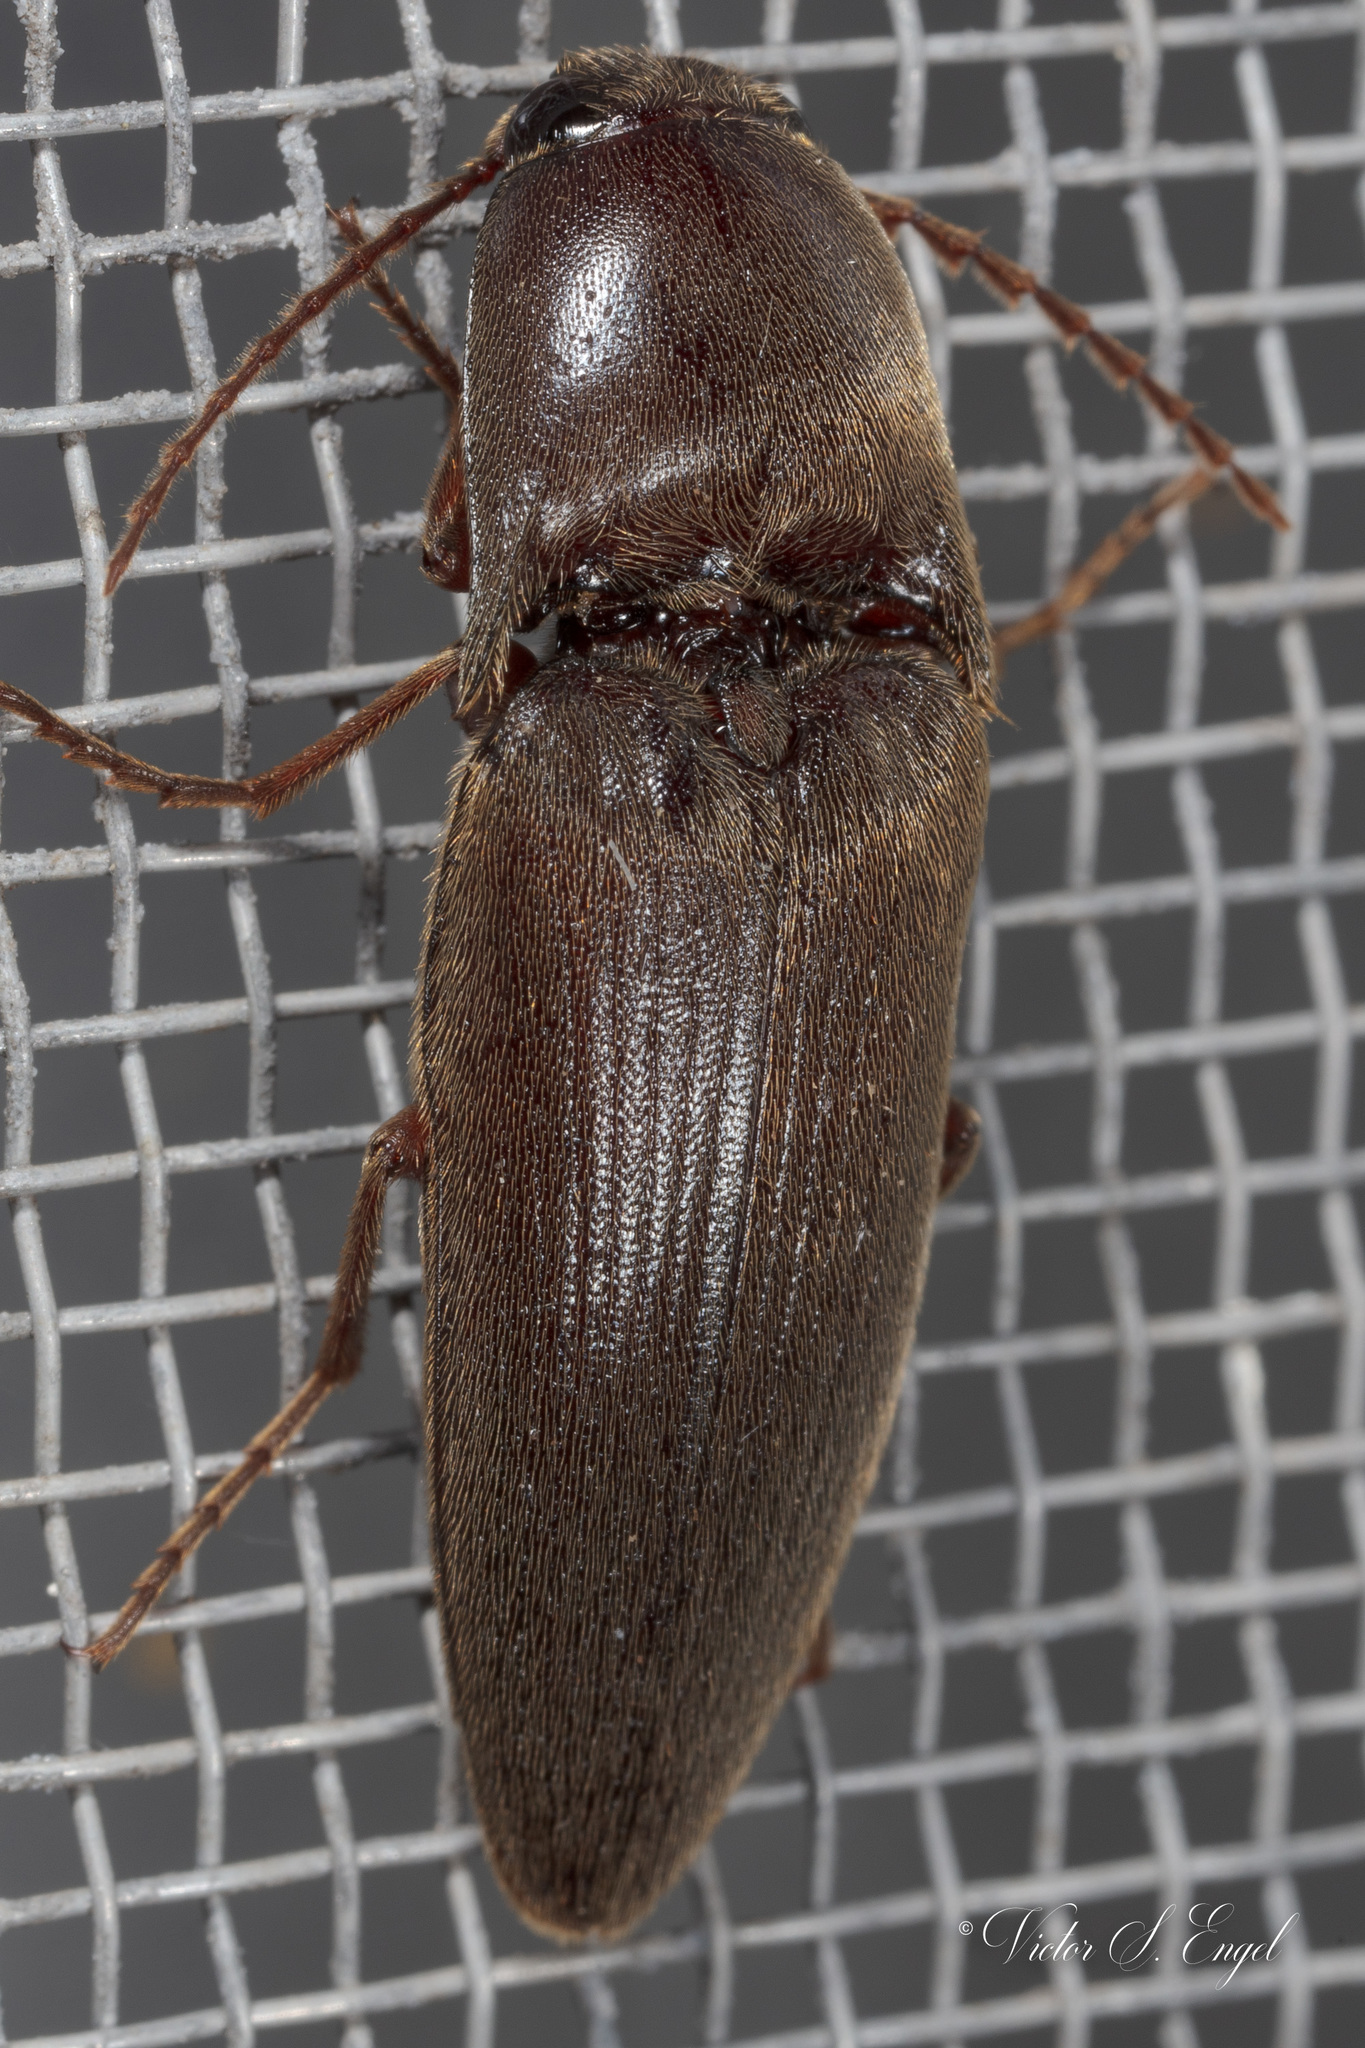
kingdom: Animalia
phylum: Arthropoda
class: Insecta
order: Coleoptera
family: Elateridae
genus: Diplostethus
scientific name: Diplostethus
